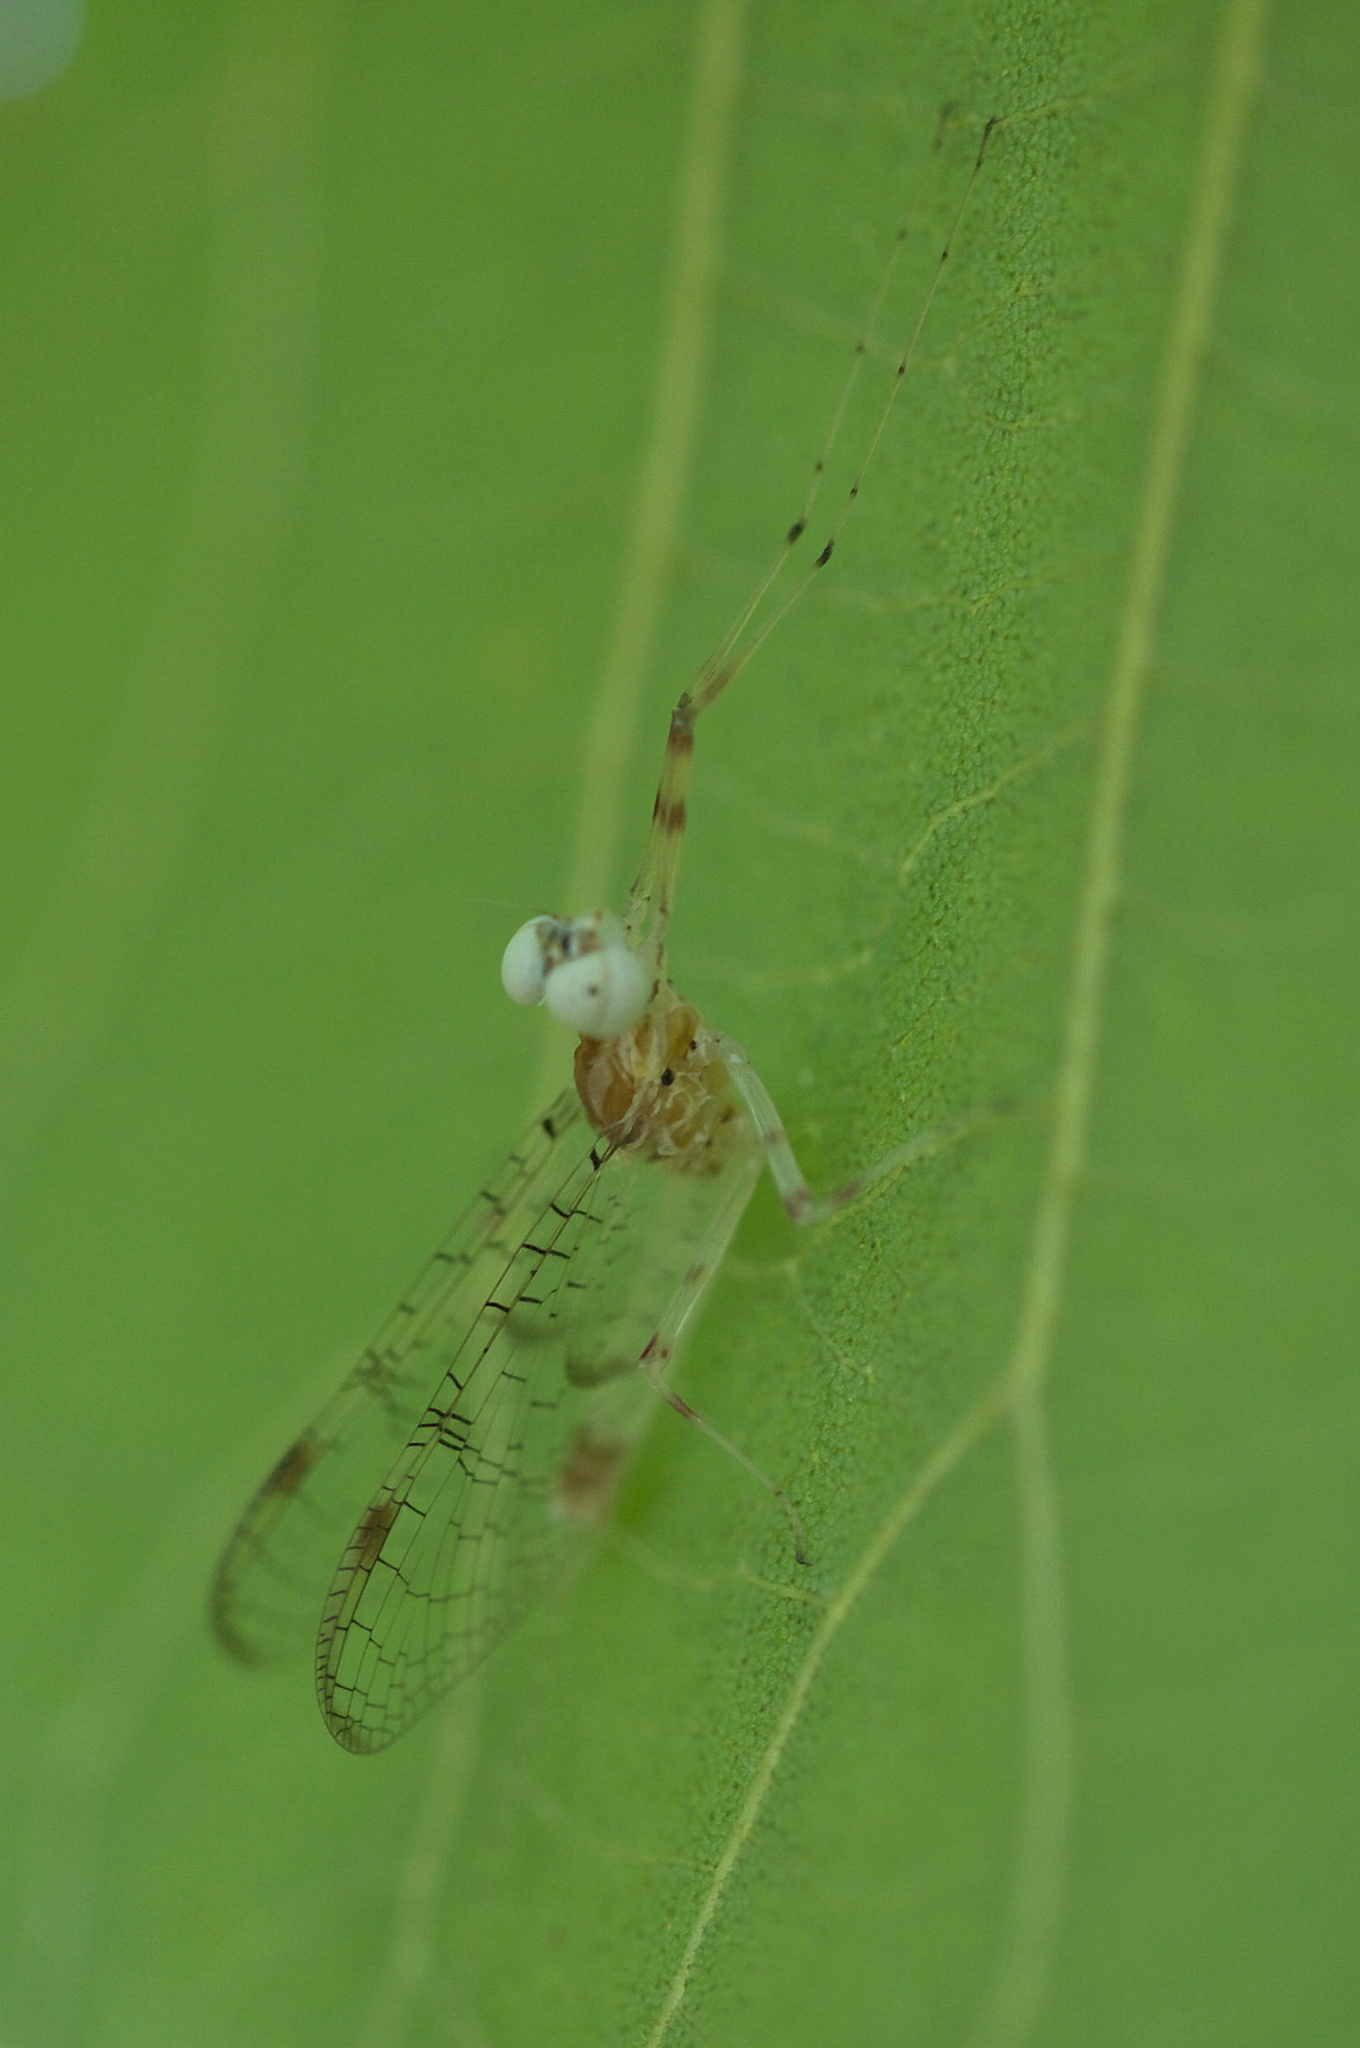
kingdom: Animalia
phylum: Arthropoda
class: Insecta
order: Ephemeroptera
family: Heptageniidae
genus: Stenonema
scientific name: Stenonema femoratum
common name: Dark cahill
